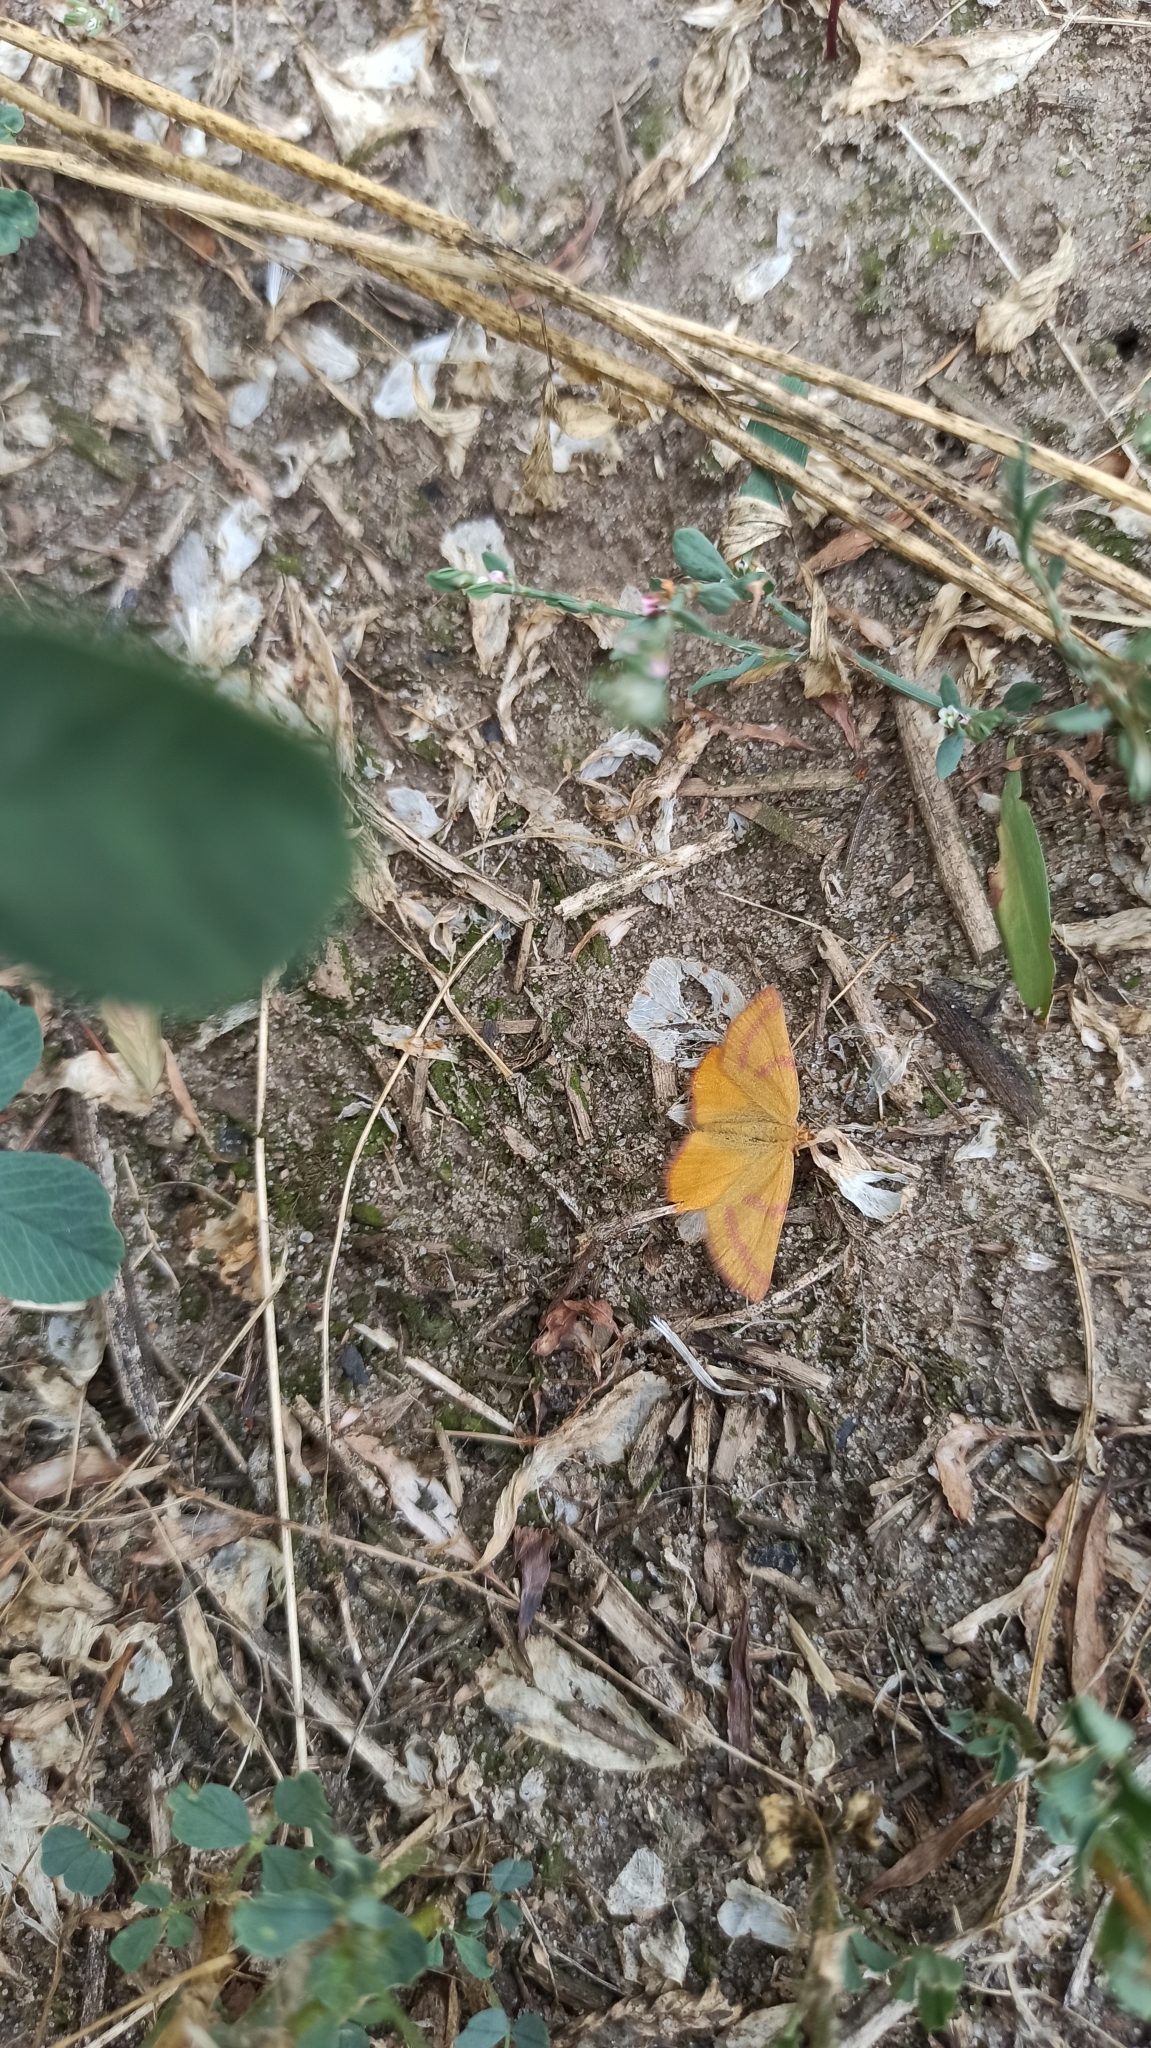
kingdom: Animalia
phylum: Arthropoda
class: Insecta
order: Lepidoptera
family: Geometridae
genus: Lythria
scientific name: Lythria purpuraria
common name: Purple-barred yellow
